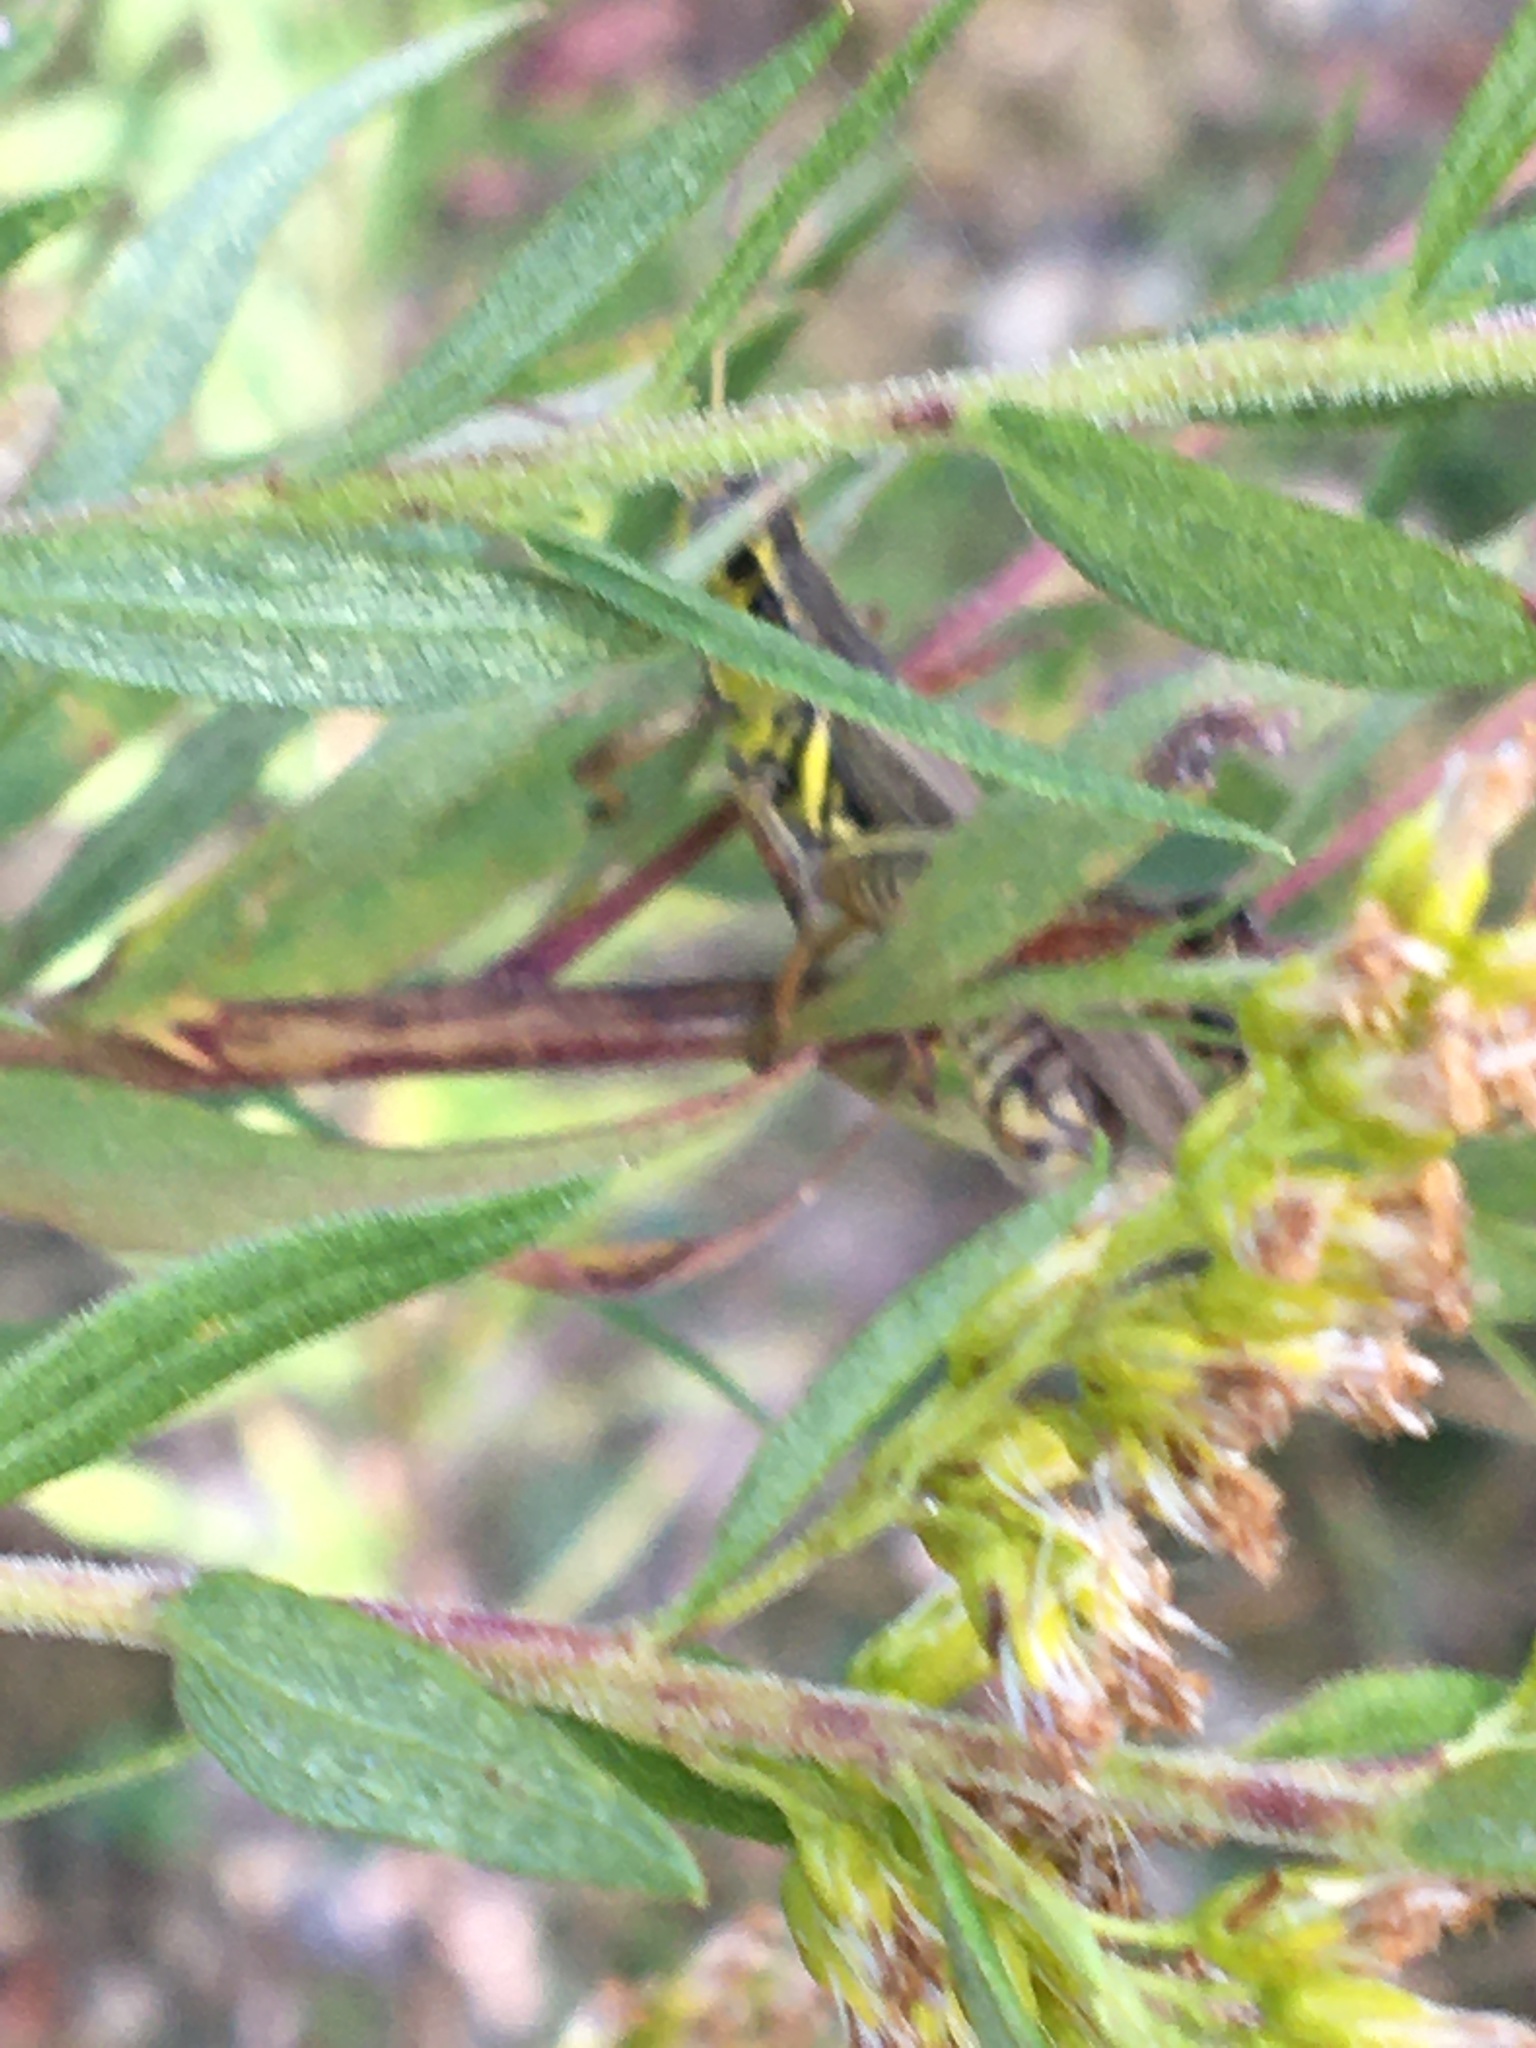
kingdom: Animalia
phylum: Arthropoda
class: Insecta
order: Orthoptera
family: Acrididae
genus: Melanoplus
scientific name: Melanoplus femurrubrum
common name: Red-legged grasshopper
